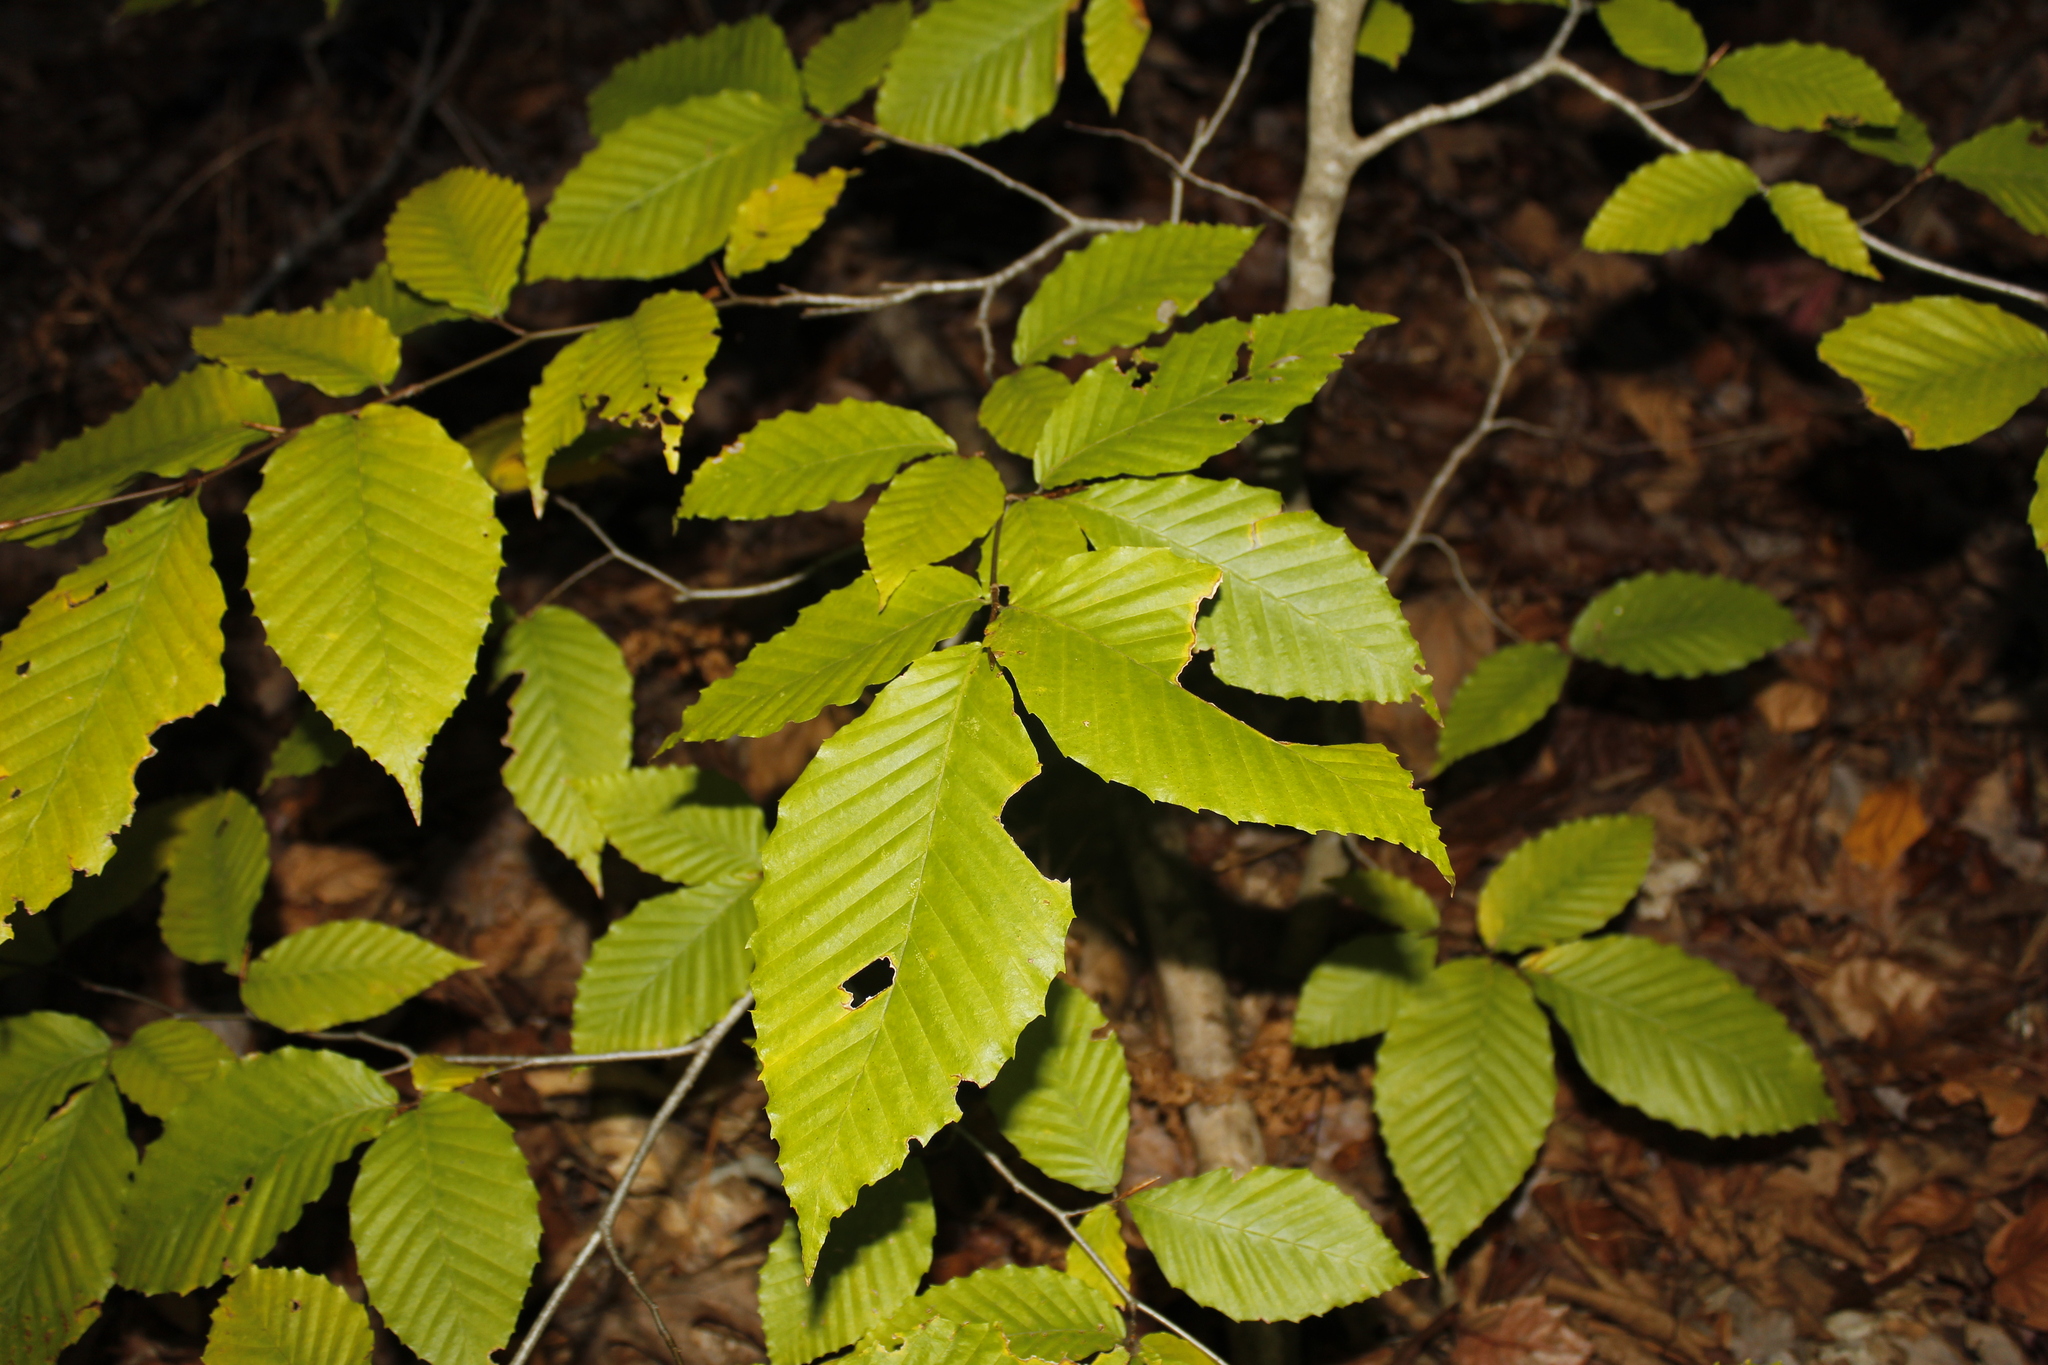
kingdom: Plantae
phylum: Tracheophyta
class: Magnoliopsida
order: Fagales
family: Fagaceae
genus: Fagus
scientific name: Fagus grandifolia
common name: American beech
